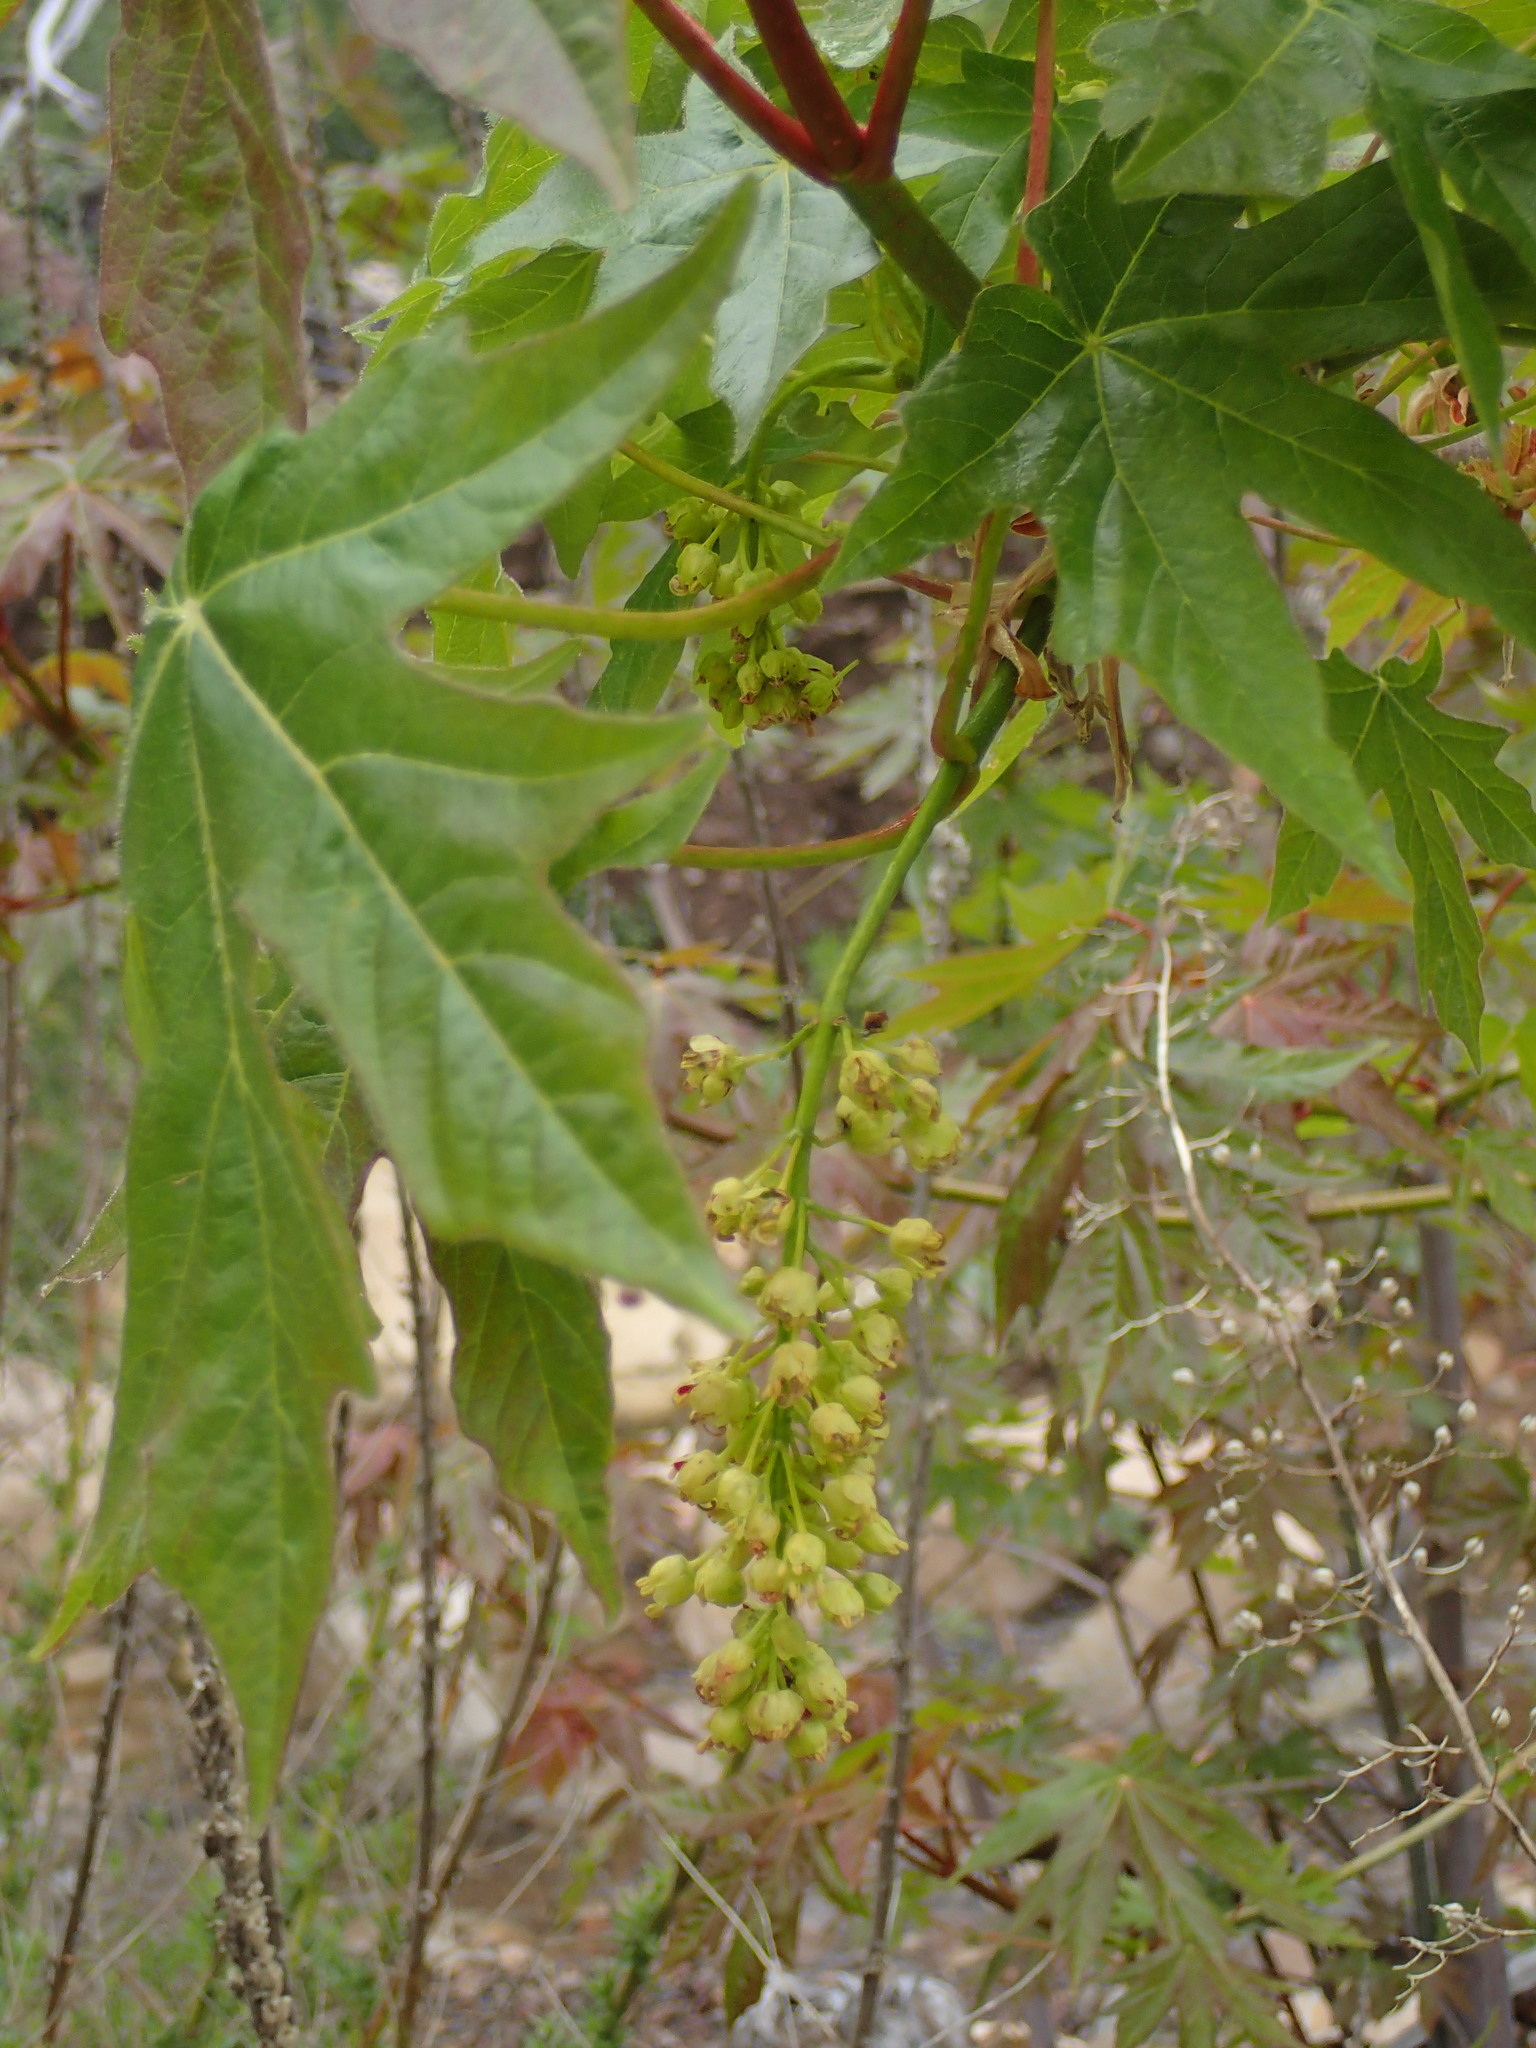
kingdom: Plantae
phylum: Tracheophyta
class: Magnoliopsida
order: Sapindales
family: Sapindaceae
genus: Acer
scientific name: Acer macrophyllum
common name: Oregon maple
